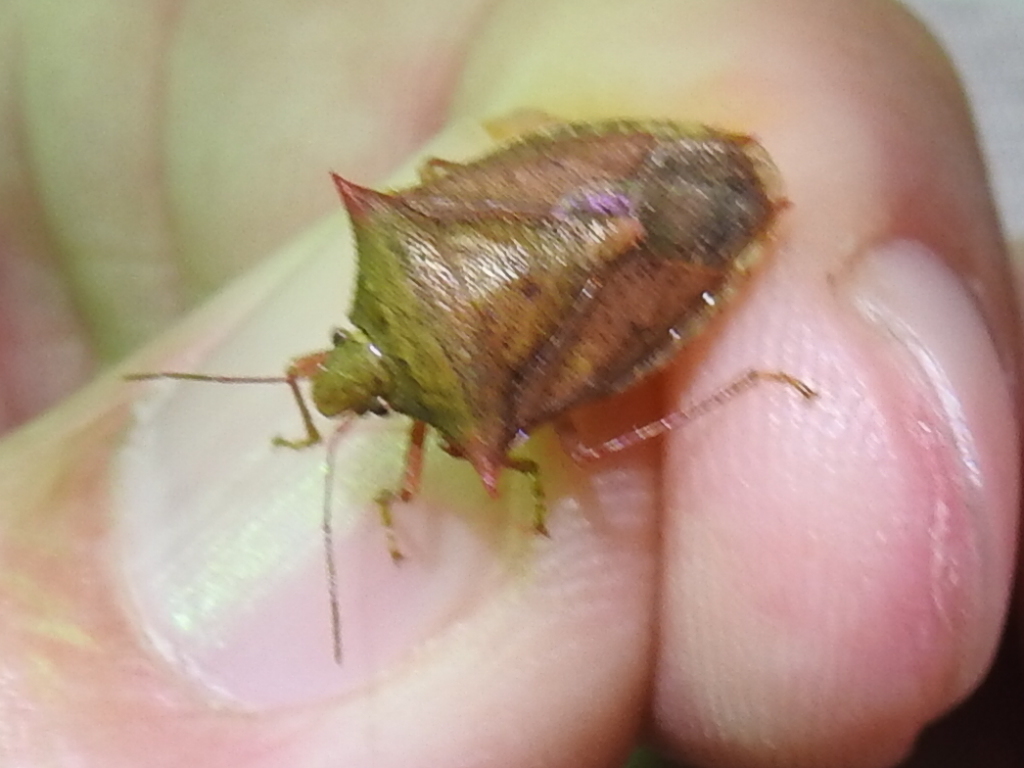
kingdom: Animalia
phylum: Arthropoda
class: Insecta
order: Hemiptera
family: Pentatomidae
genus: Euschistus
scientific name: Euschistus ictericus
